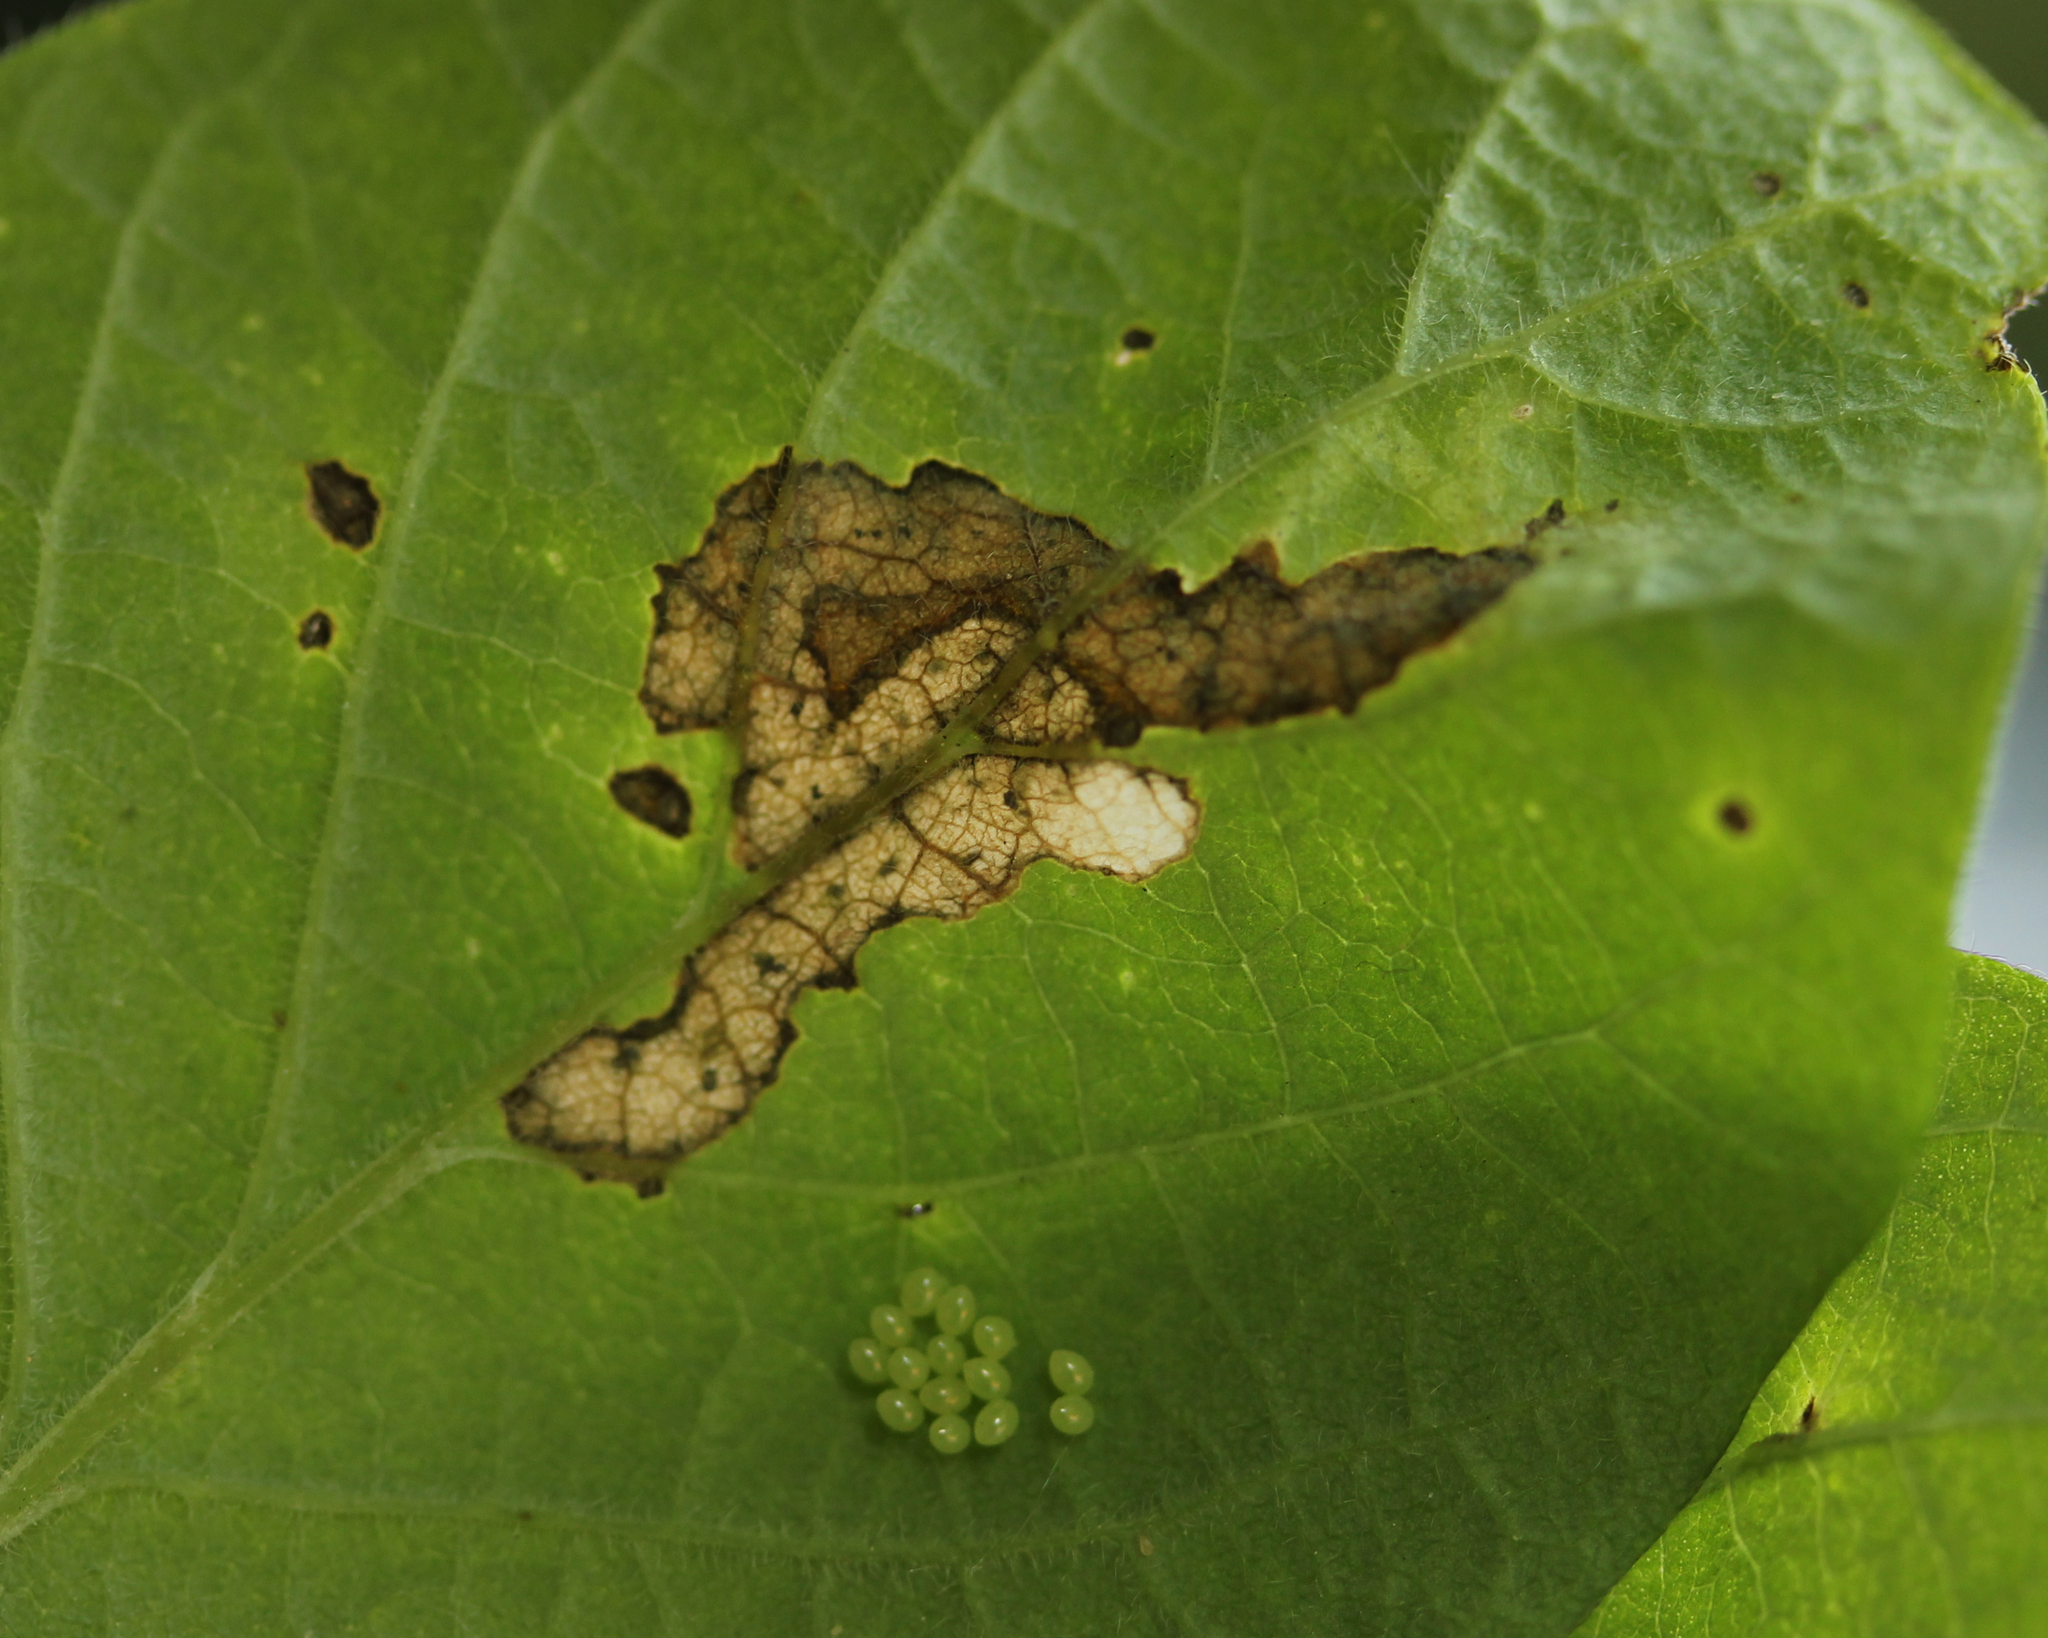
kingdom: Plantae
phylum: Tracheophyta
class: Magnoliopsida
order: Dipsacales
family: Caprifoliaceae
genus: Lonicera
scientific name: Lonicera xylosteum
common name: Fly honeysuckle
